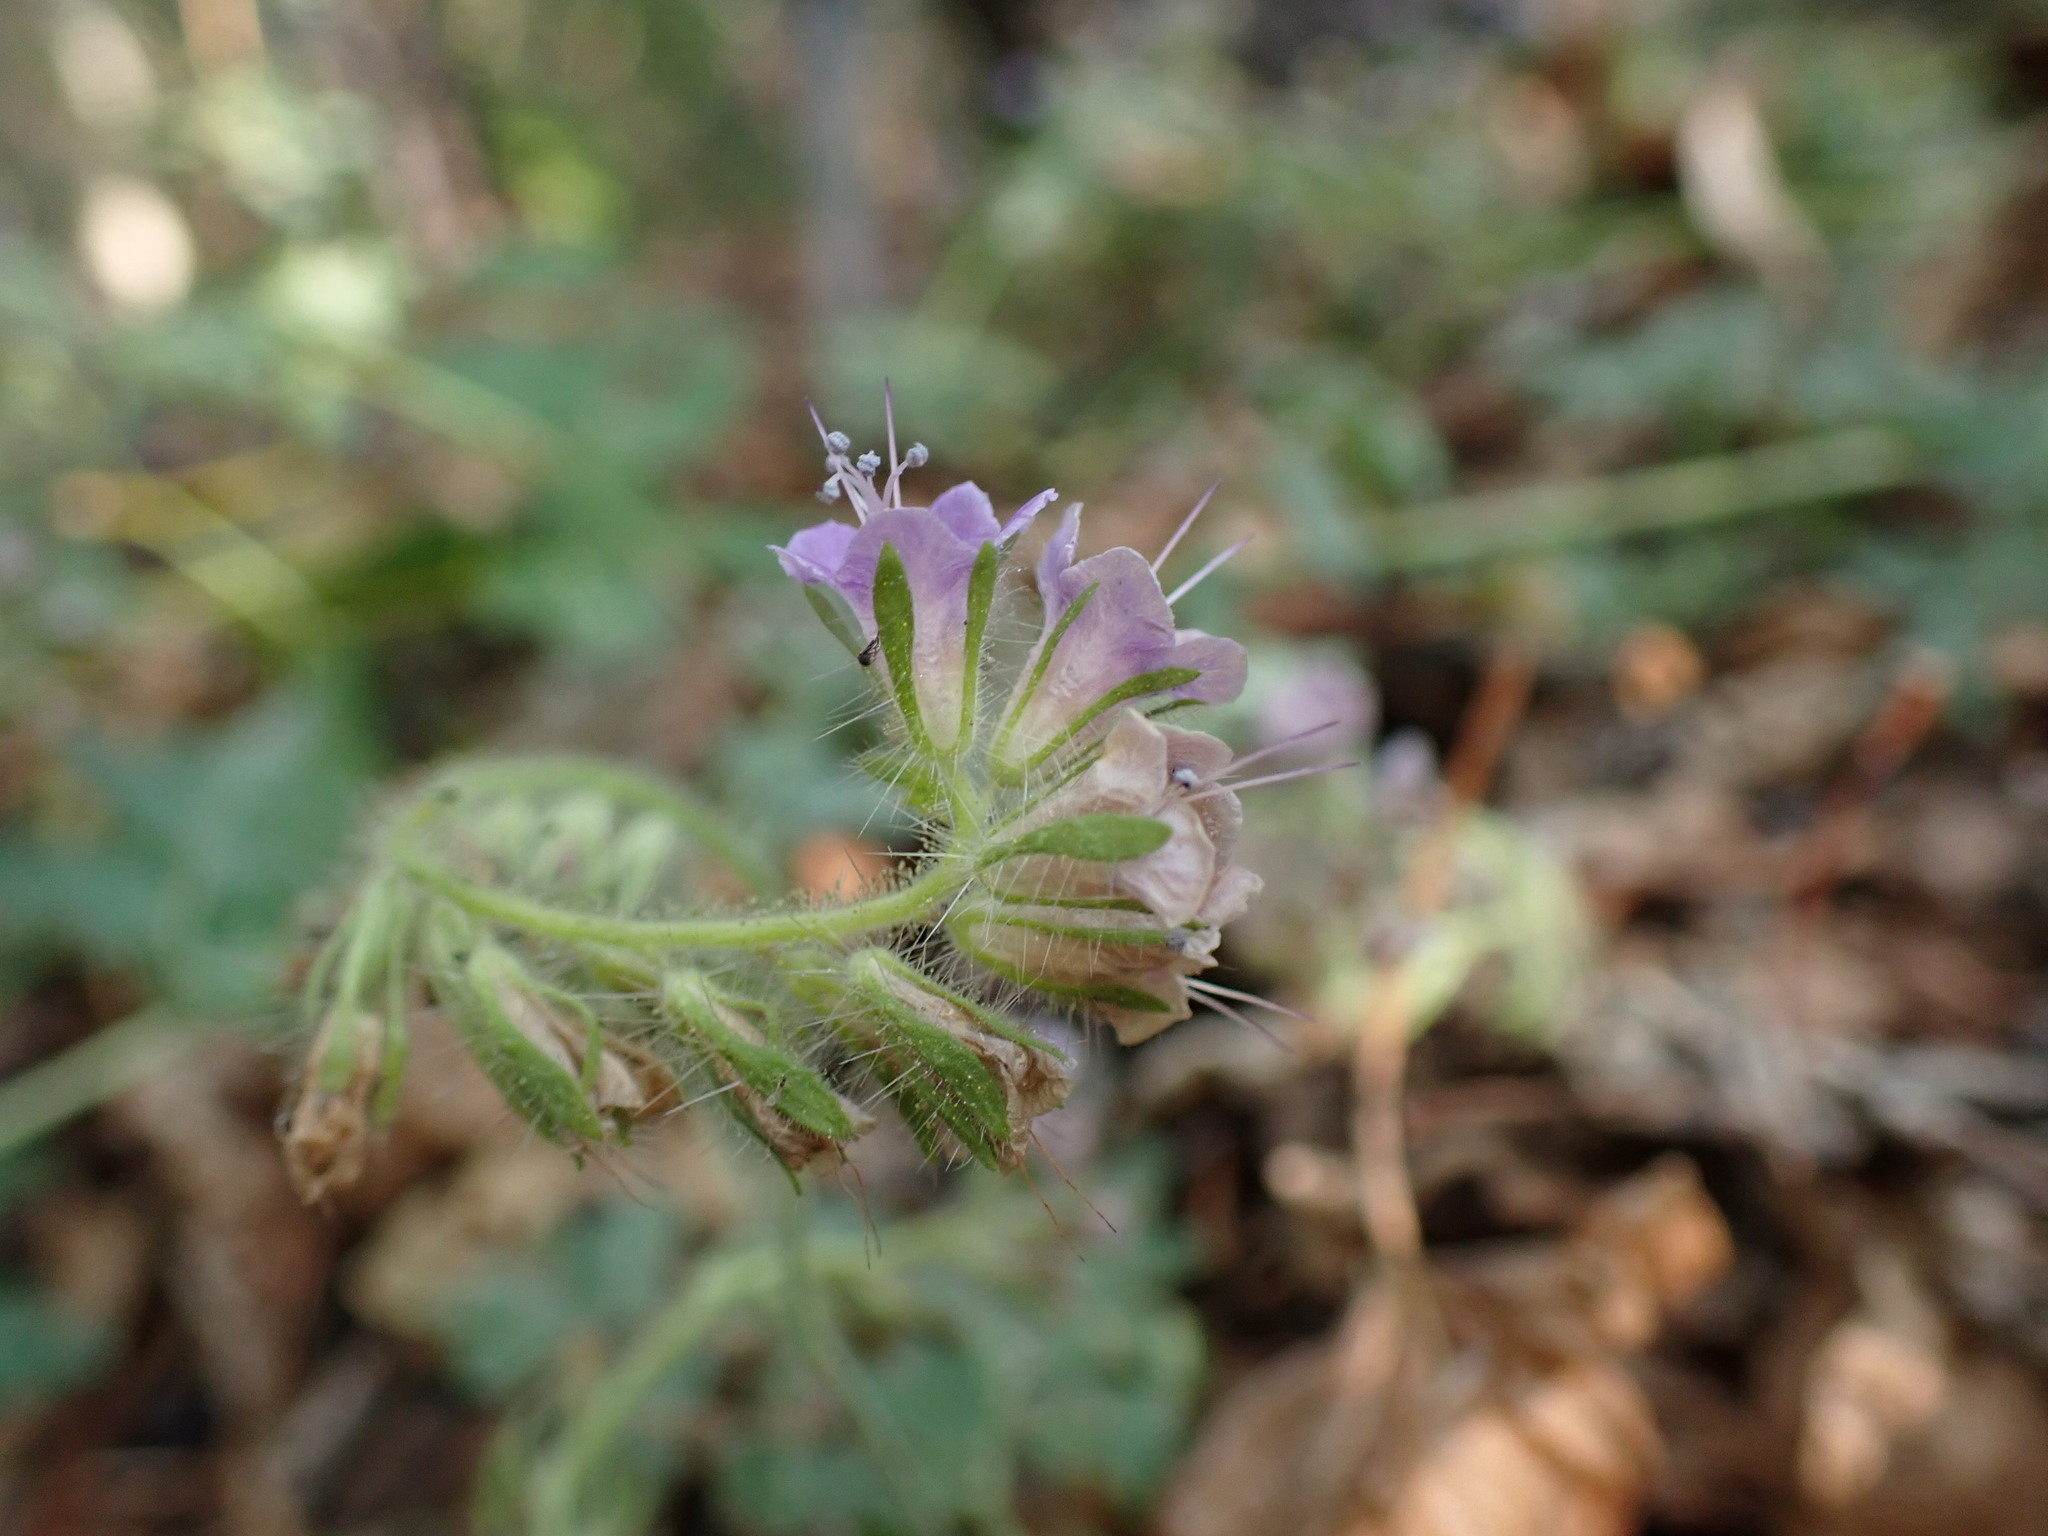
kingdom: Plantae
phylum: Tracheophyta
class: Magnoliopsida
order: Boraginales
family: Hydrophyllaceae
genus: Phacelia
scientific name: Phacelia ramosissima
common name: Branching phacelia
